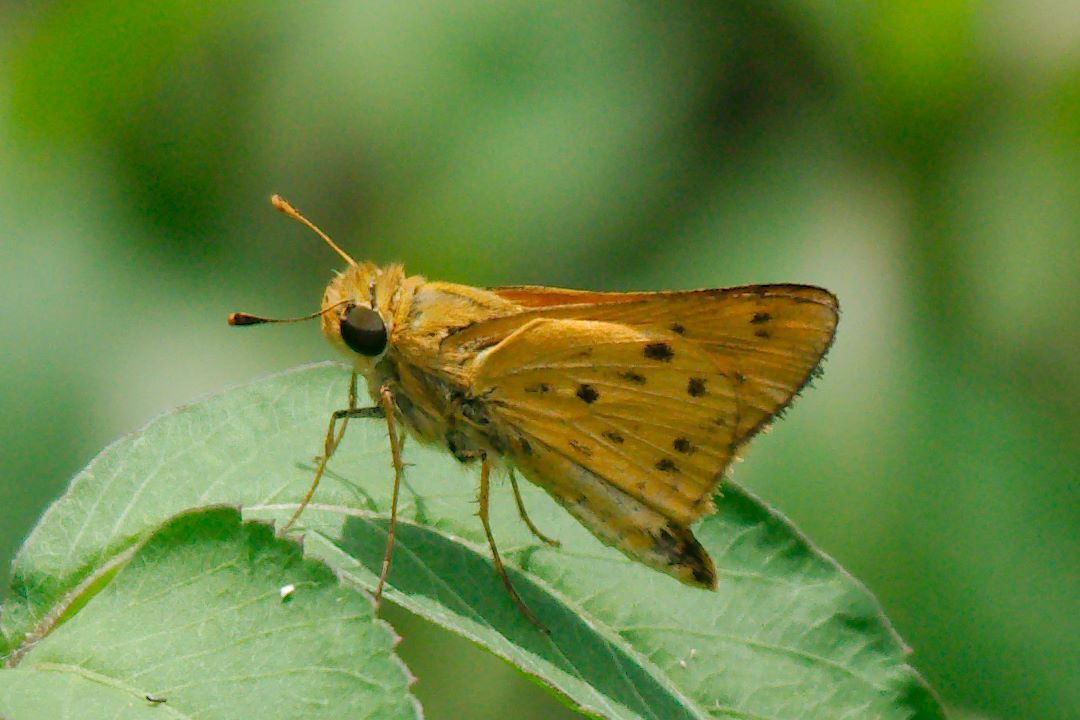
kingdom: Animalia
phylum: Arthropoda
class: Insecta
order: Lepidoptera
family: Hesperiidae
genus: Hylephila
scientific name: Hylephila phyleus
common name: Fiery skipper
